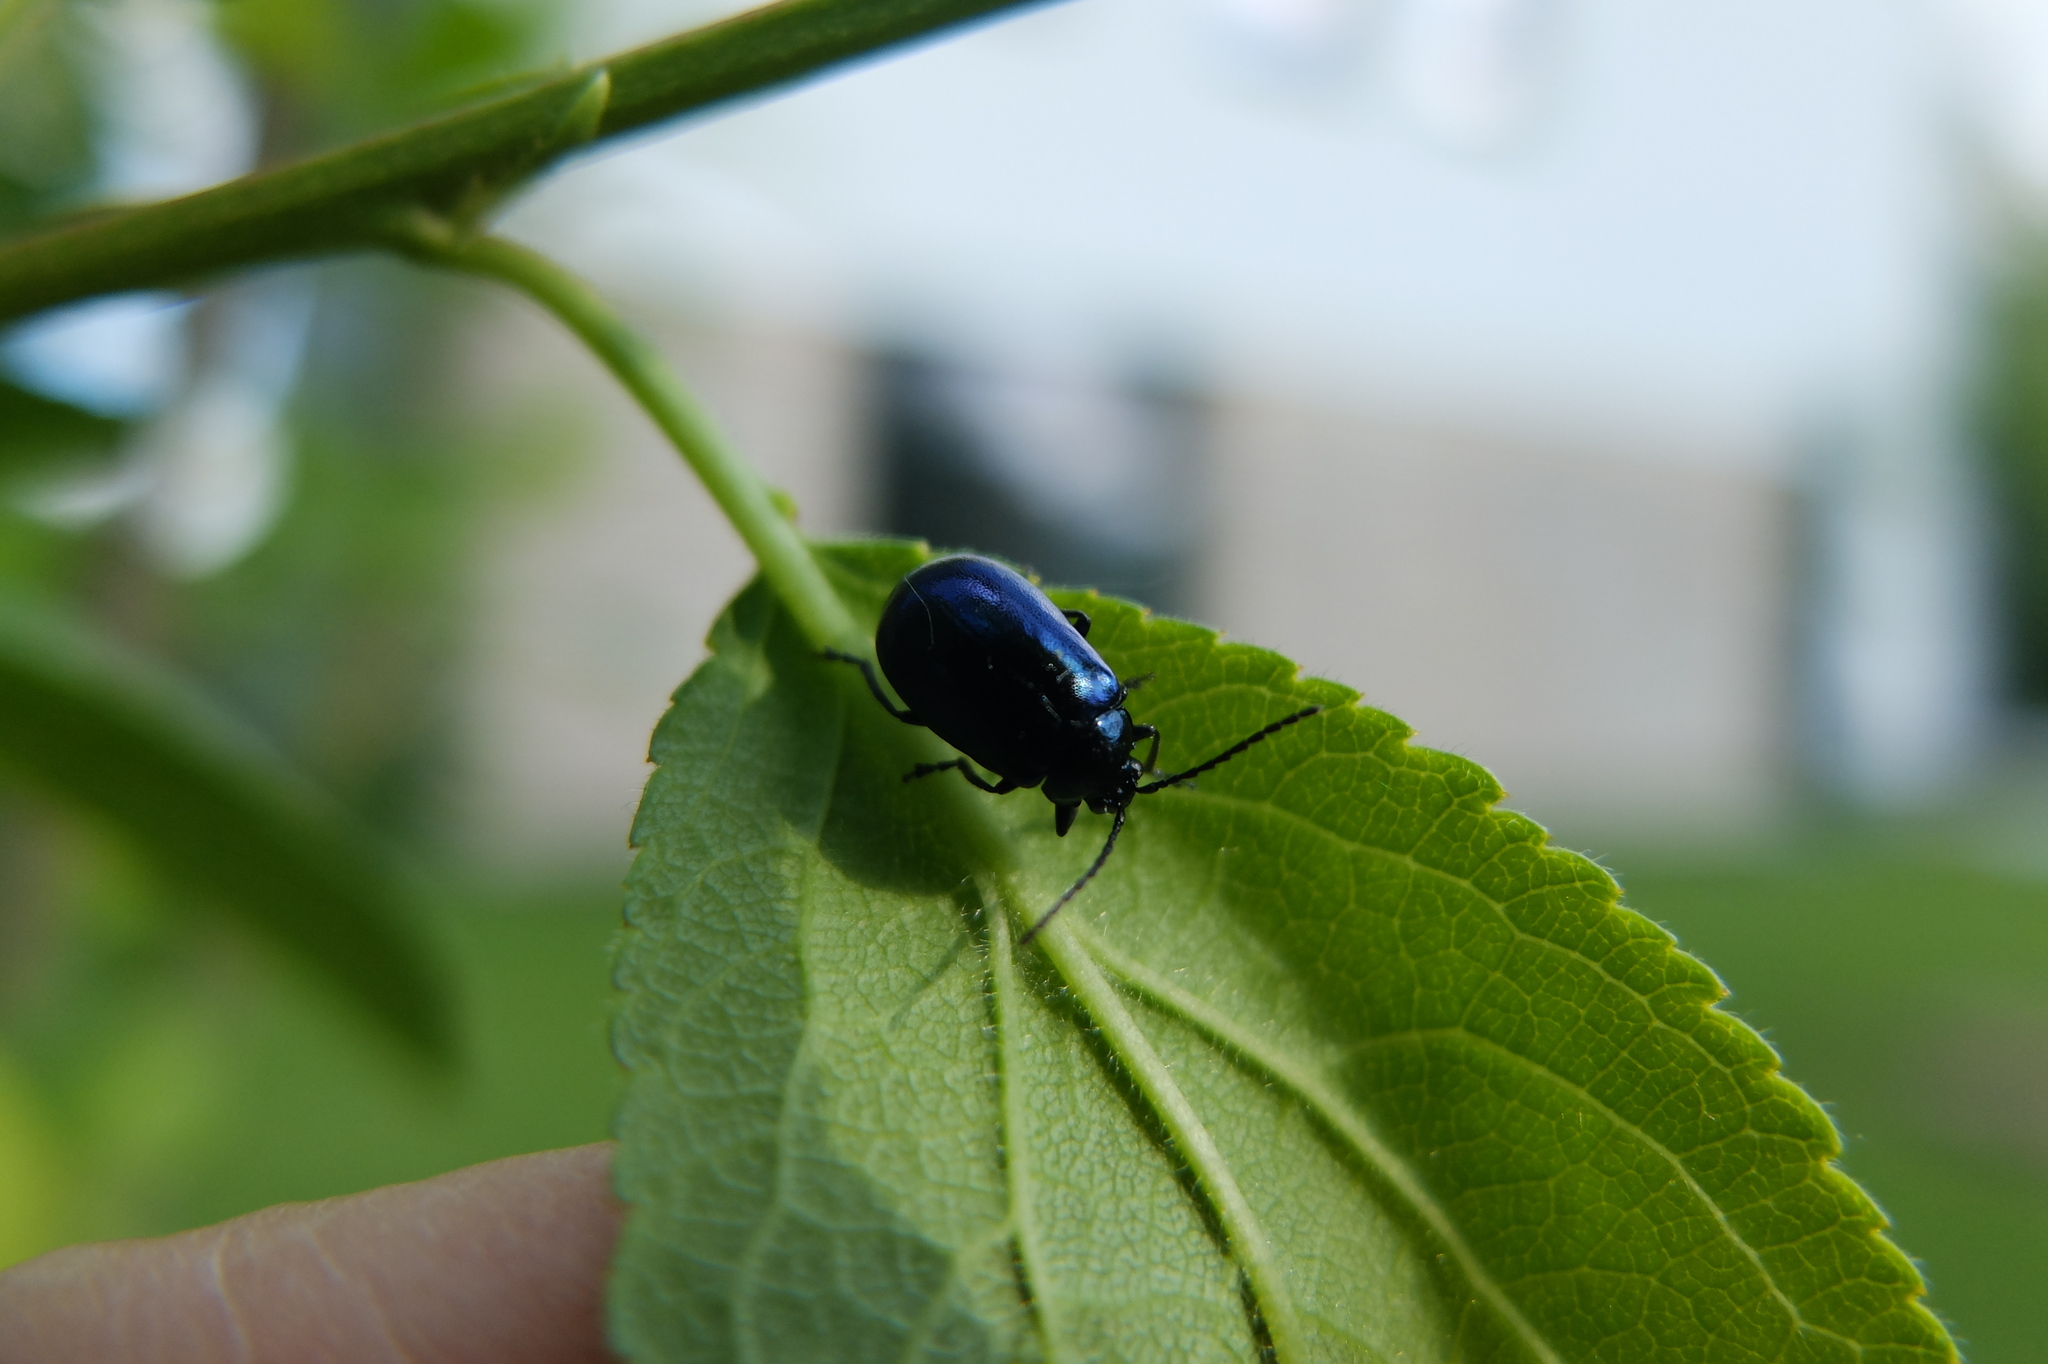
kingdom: Animalia
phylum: Arthropoda
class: Insecta
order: Coleoptera
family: Chrysomelidae
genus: Agelastica
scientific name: Agelastica alni
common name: Alder leaf beetle
